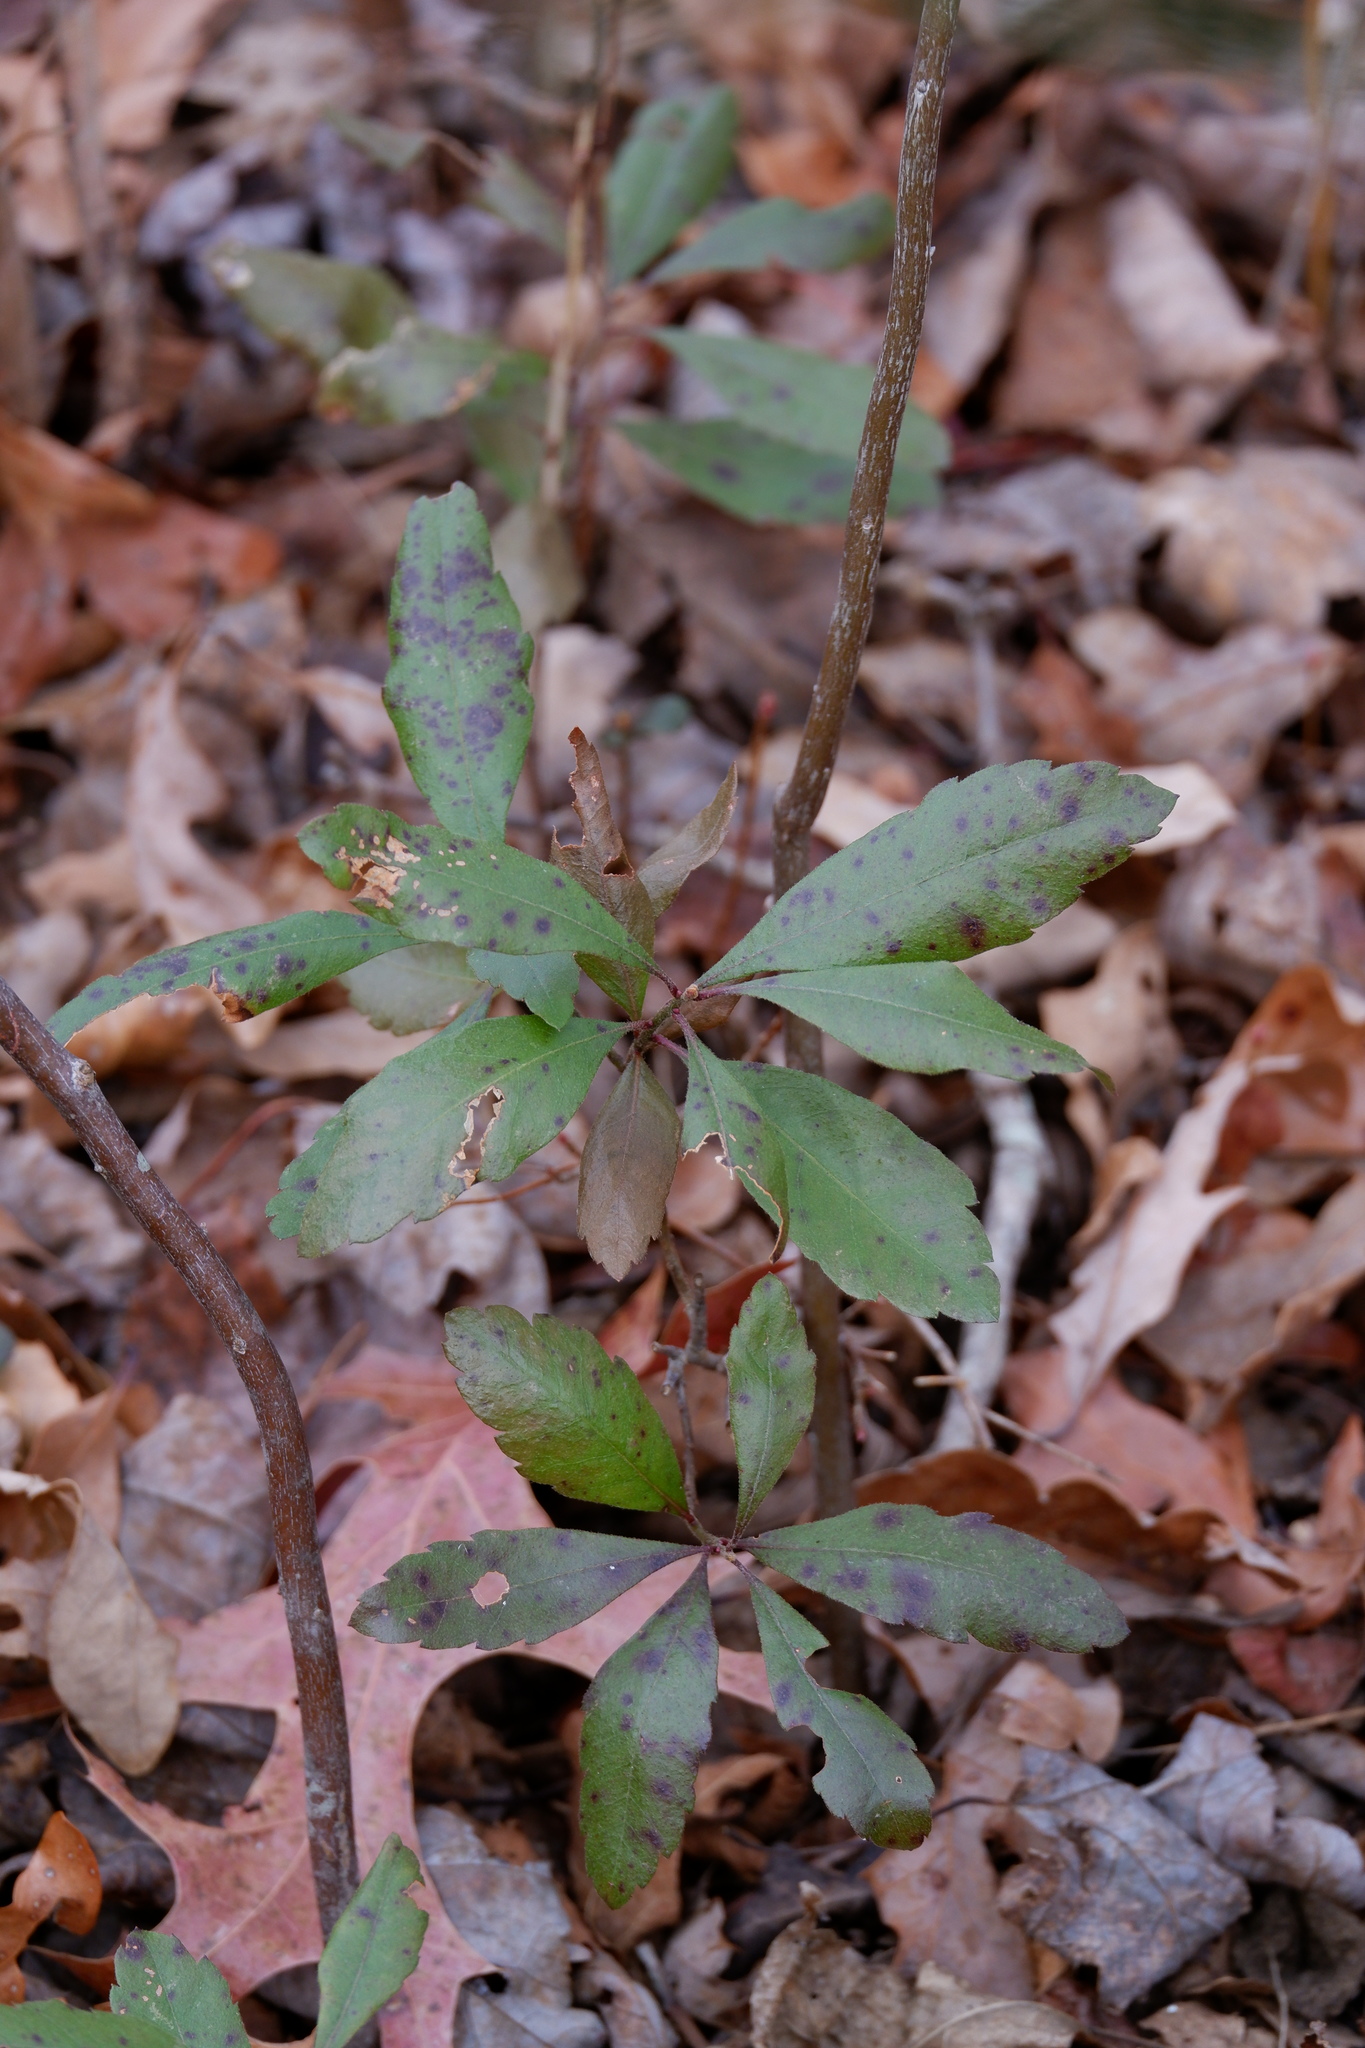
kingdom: Plantae
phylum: Tracheophyta
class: Magnoliopsida
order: Fagales
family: Myricaceae
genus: Morella
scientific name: Morella pensylvanica
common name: Northern bayberry
